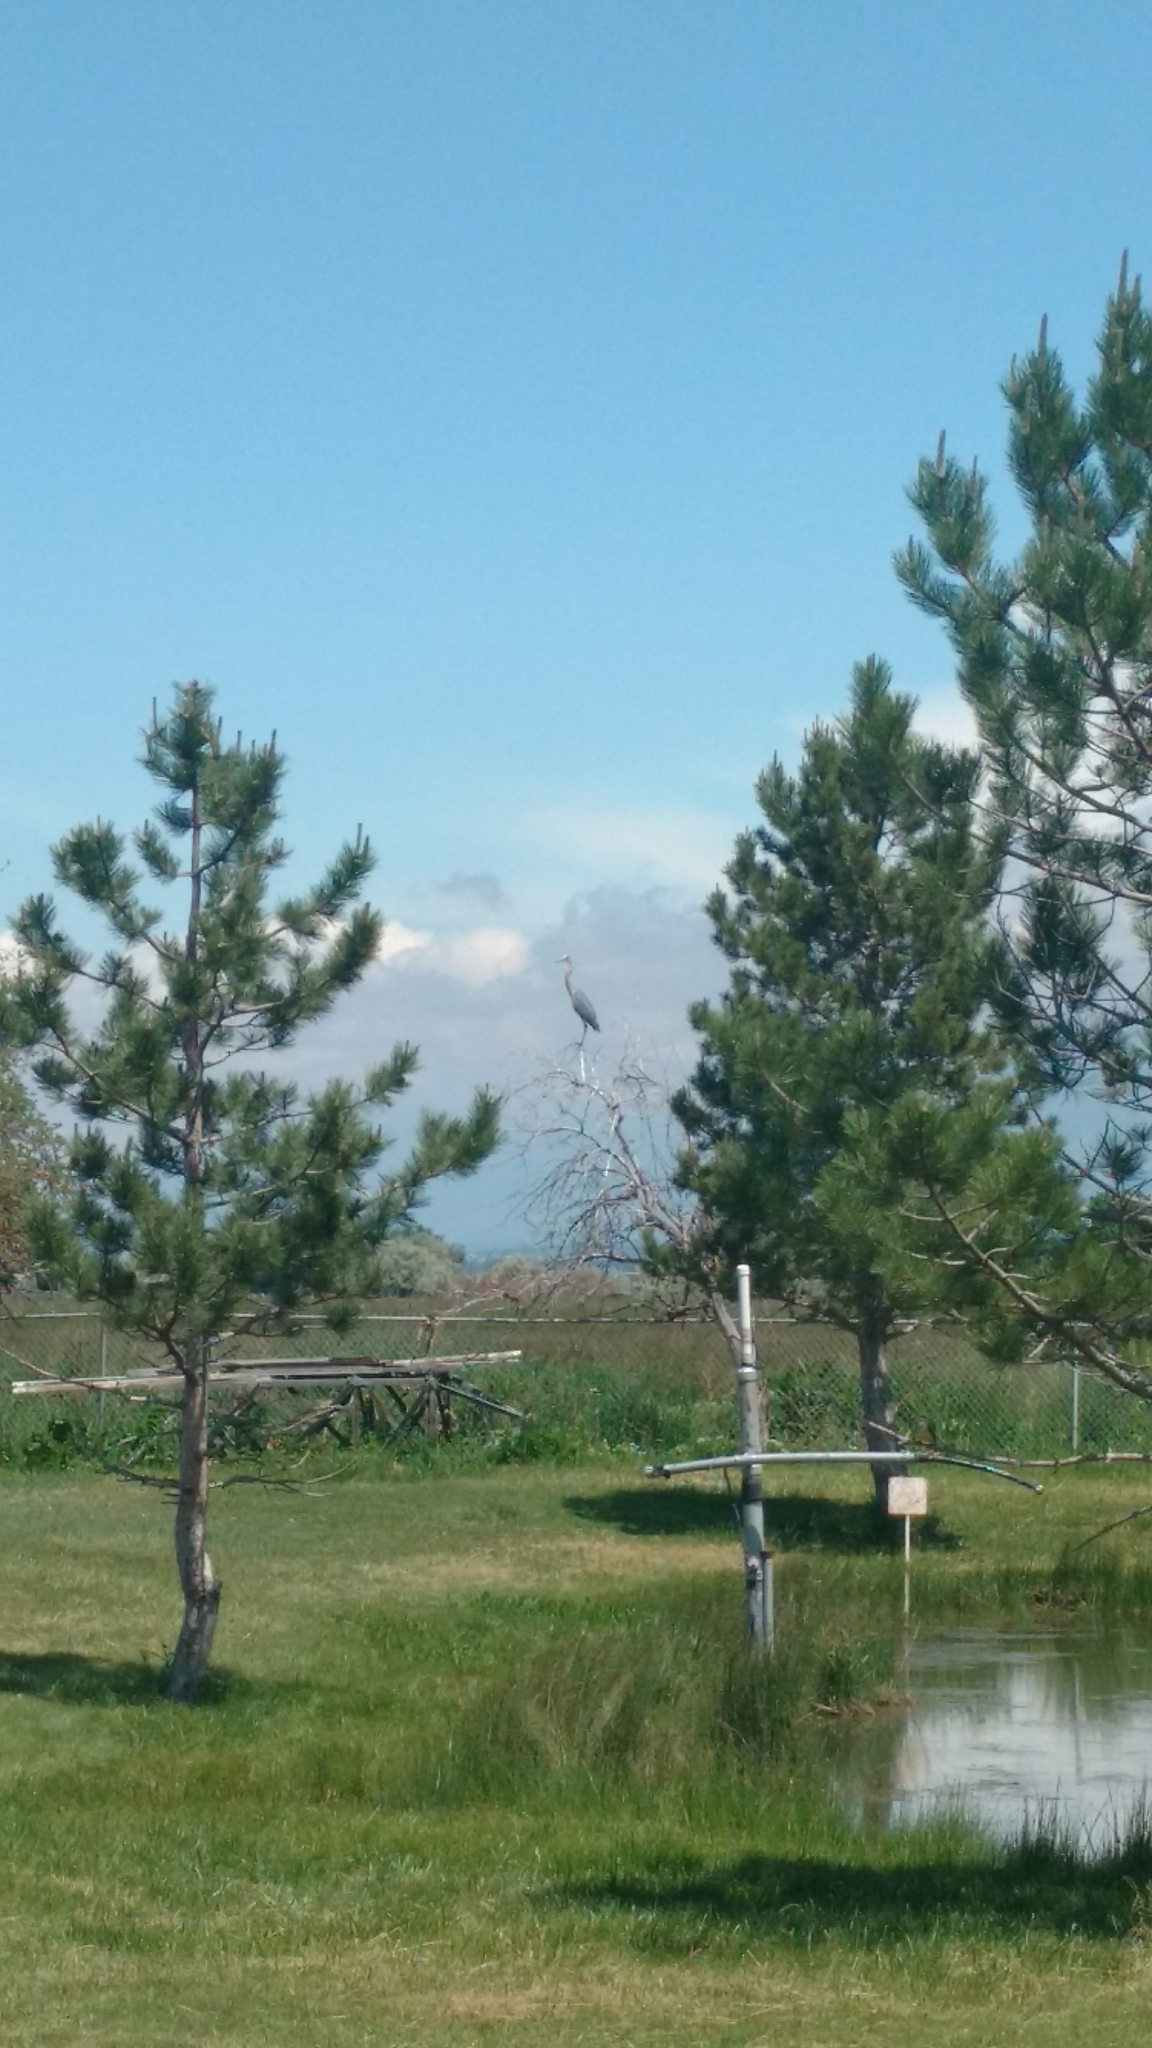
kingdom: Animalia
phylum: Chordata
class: Aves
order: Pelecaniformes
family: Ardeidae
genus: Ardea
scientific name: Ardea herodias
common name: Great blue heron
